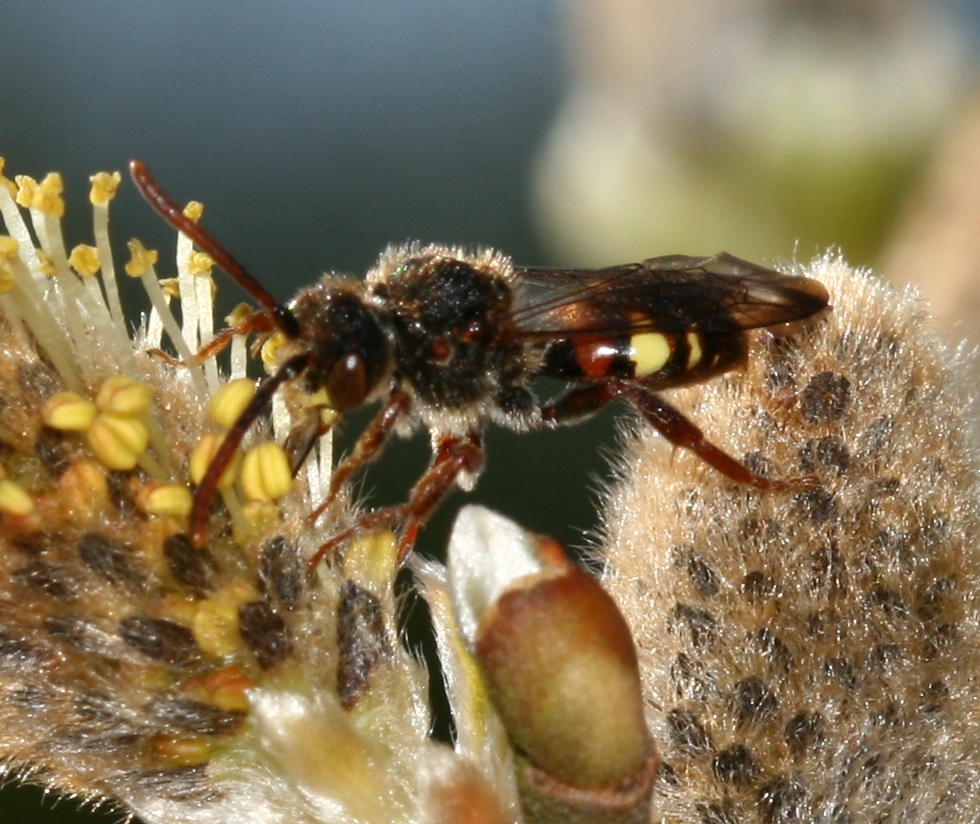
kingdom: Animalia
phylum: Arthropoda
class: Insecta
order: Hymenoptera
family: Apidae
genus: Nomada
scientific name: Nomada leucophthalma
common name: Early nomad bee
